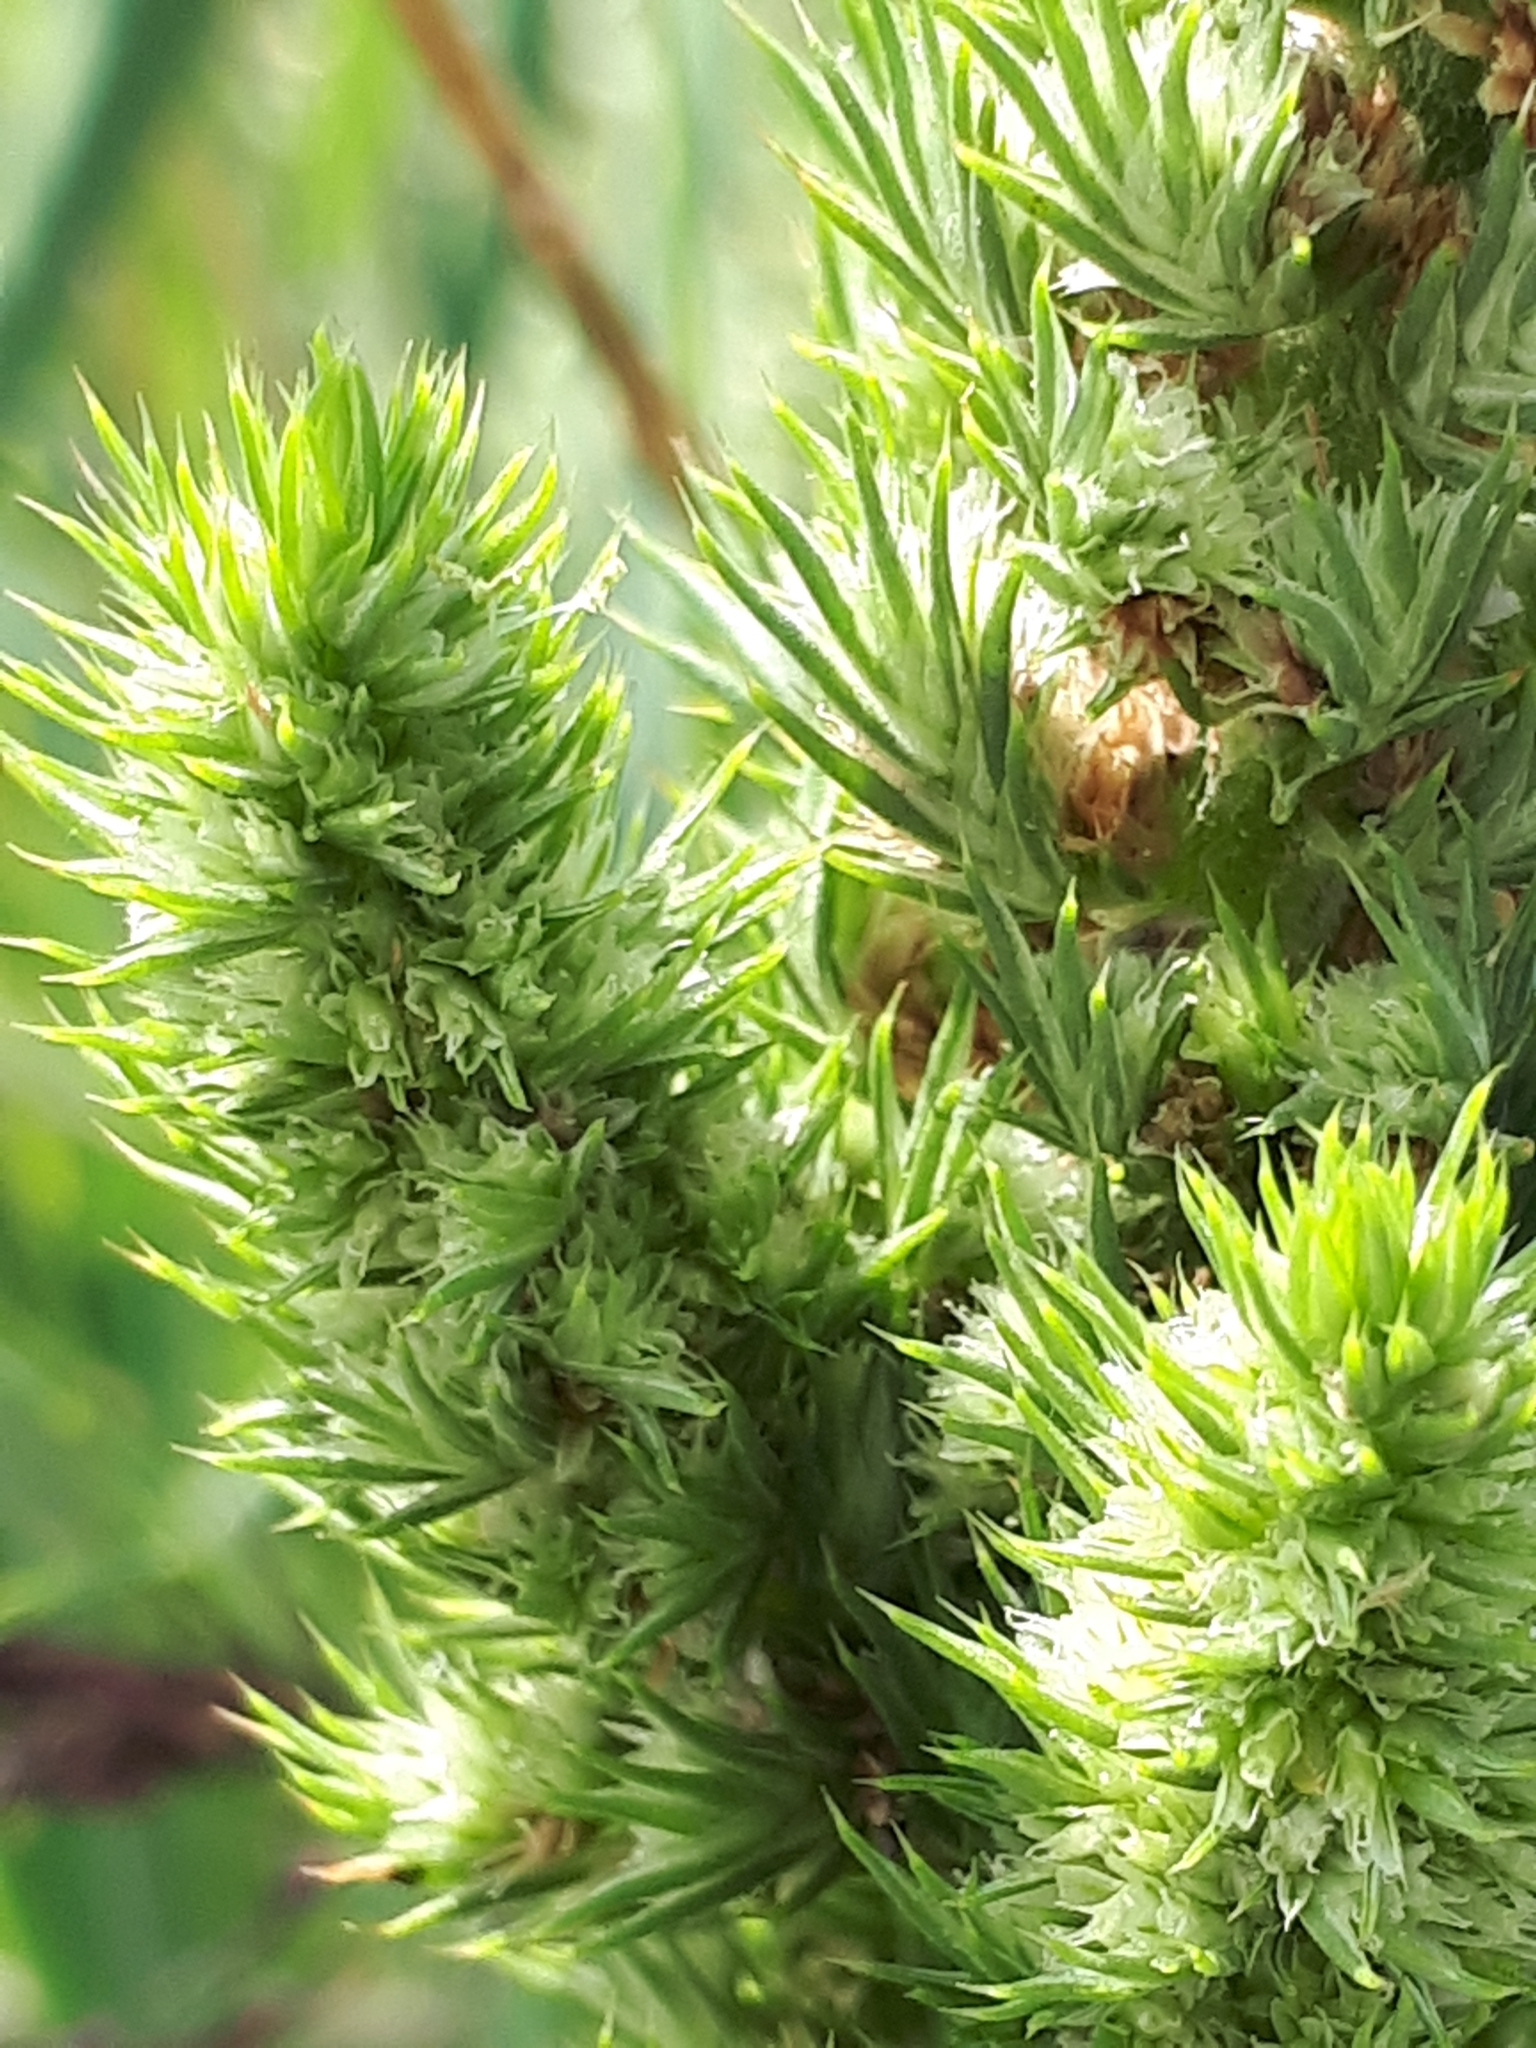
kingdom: Plantae
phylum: Tracheophyta
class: Magnoliopsida
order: Caryophyllales
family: Amaranthaceae
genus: Amaranthus
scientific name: Amaranthus retroflexus
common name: Redroot amaranth
